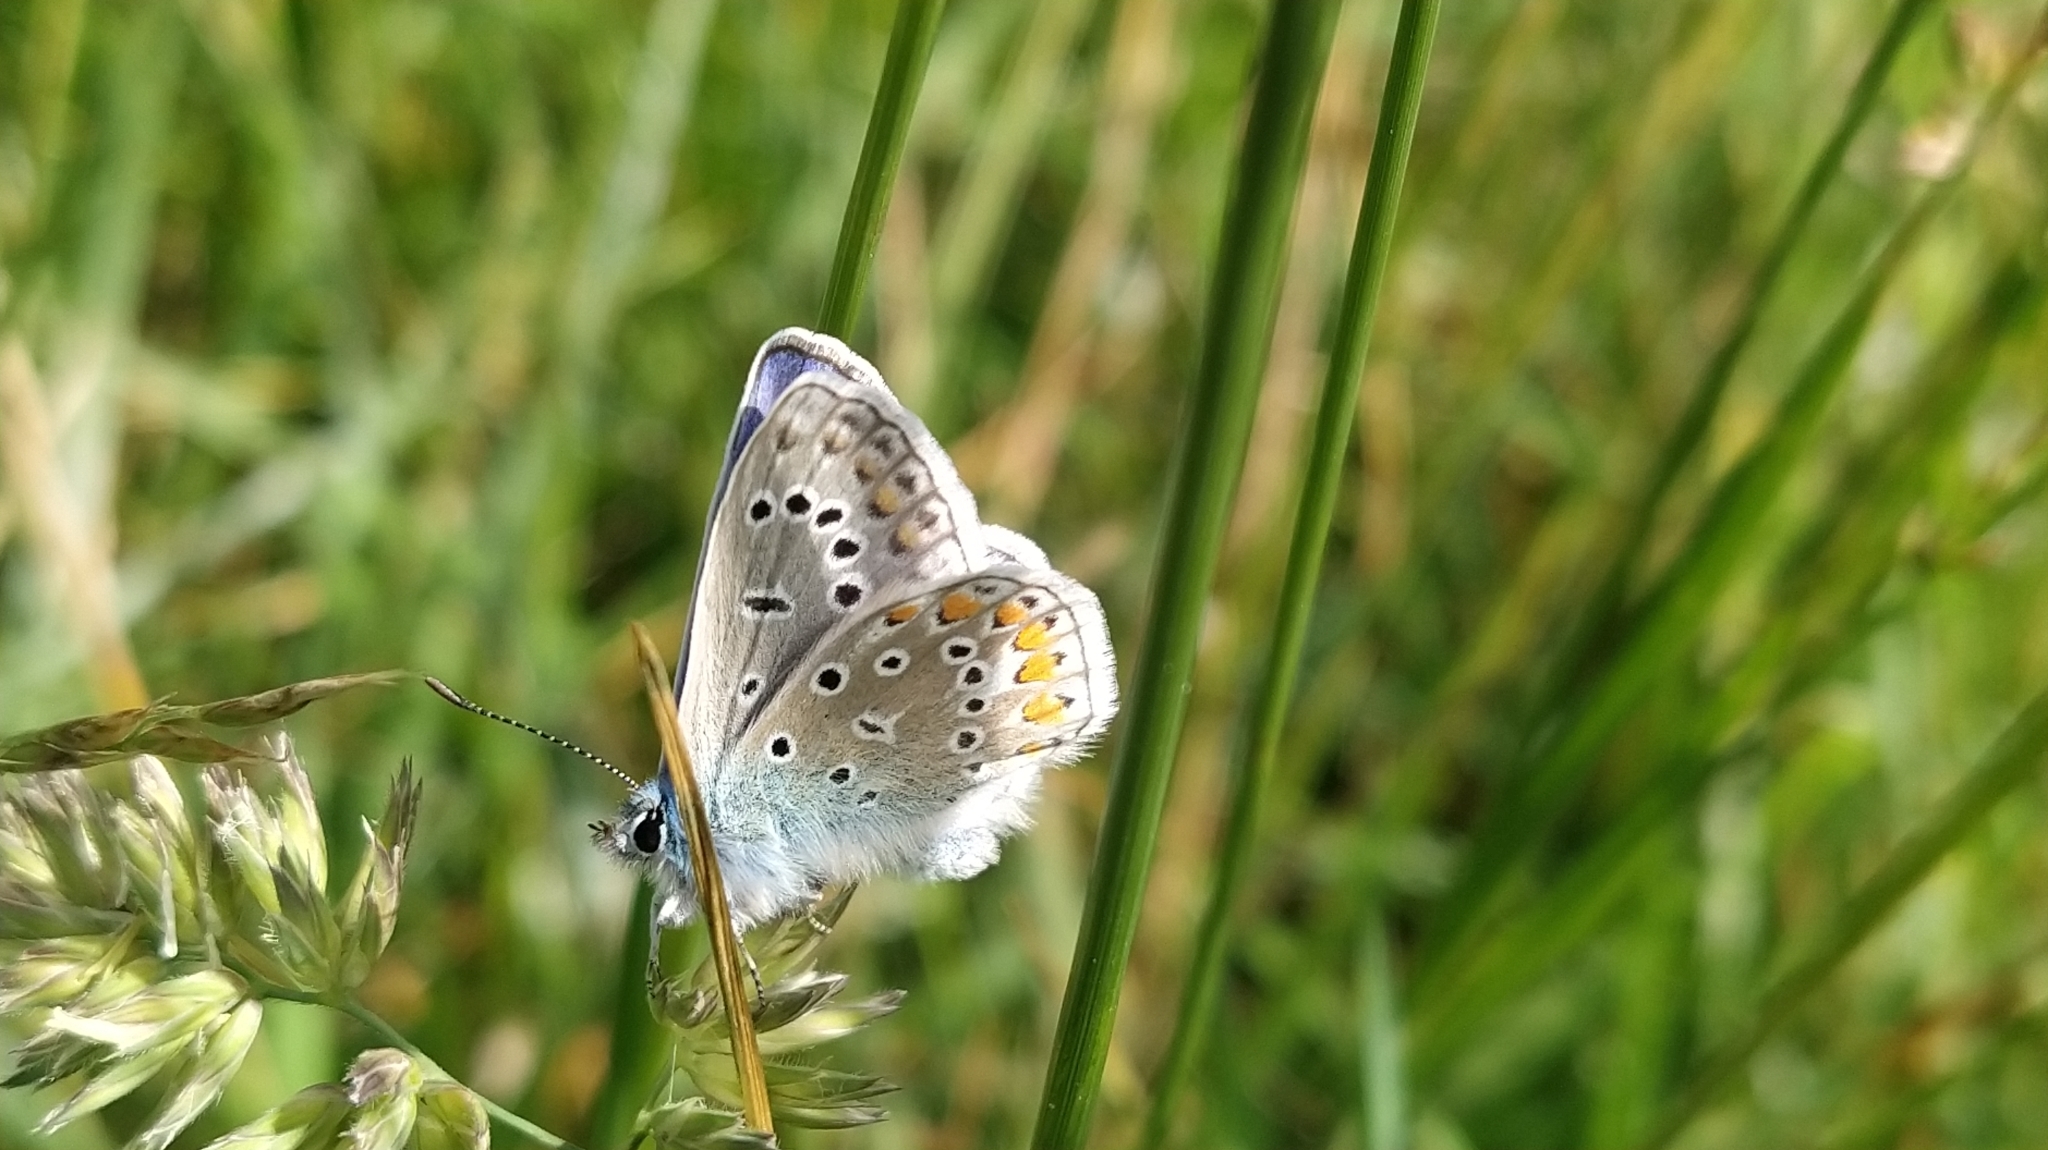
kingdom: Animalia
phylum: Arthropoda
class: Insecta
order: Lepidoptera
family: Lycaenidae
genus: Polyommatus
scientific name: Polyommatus icarus
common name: Common blue
